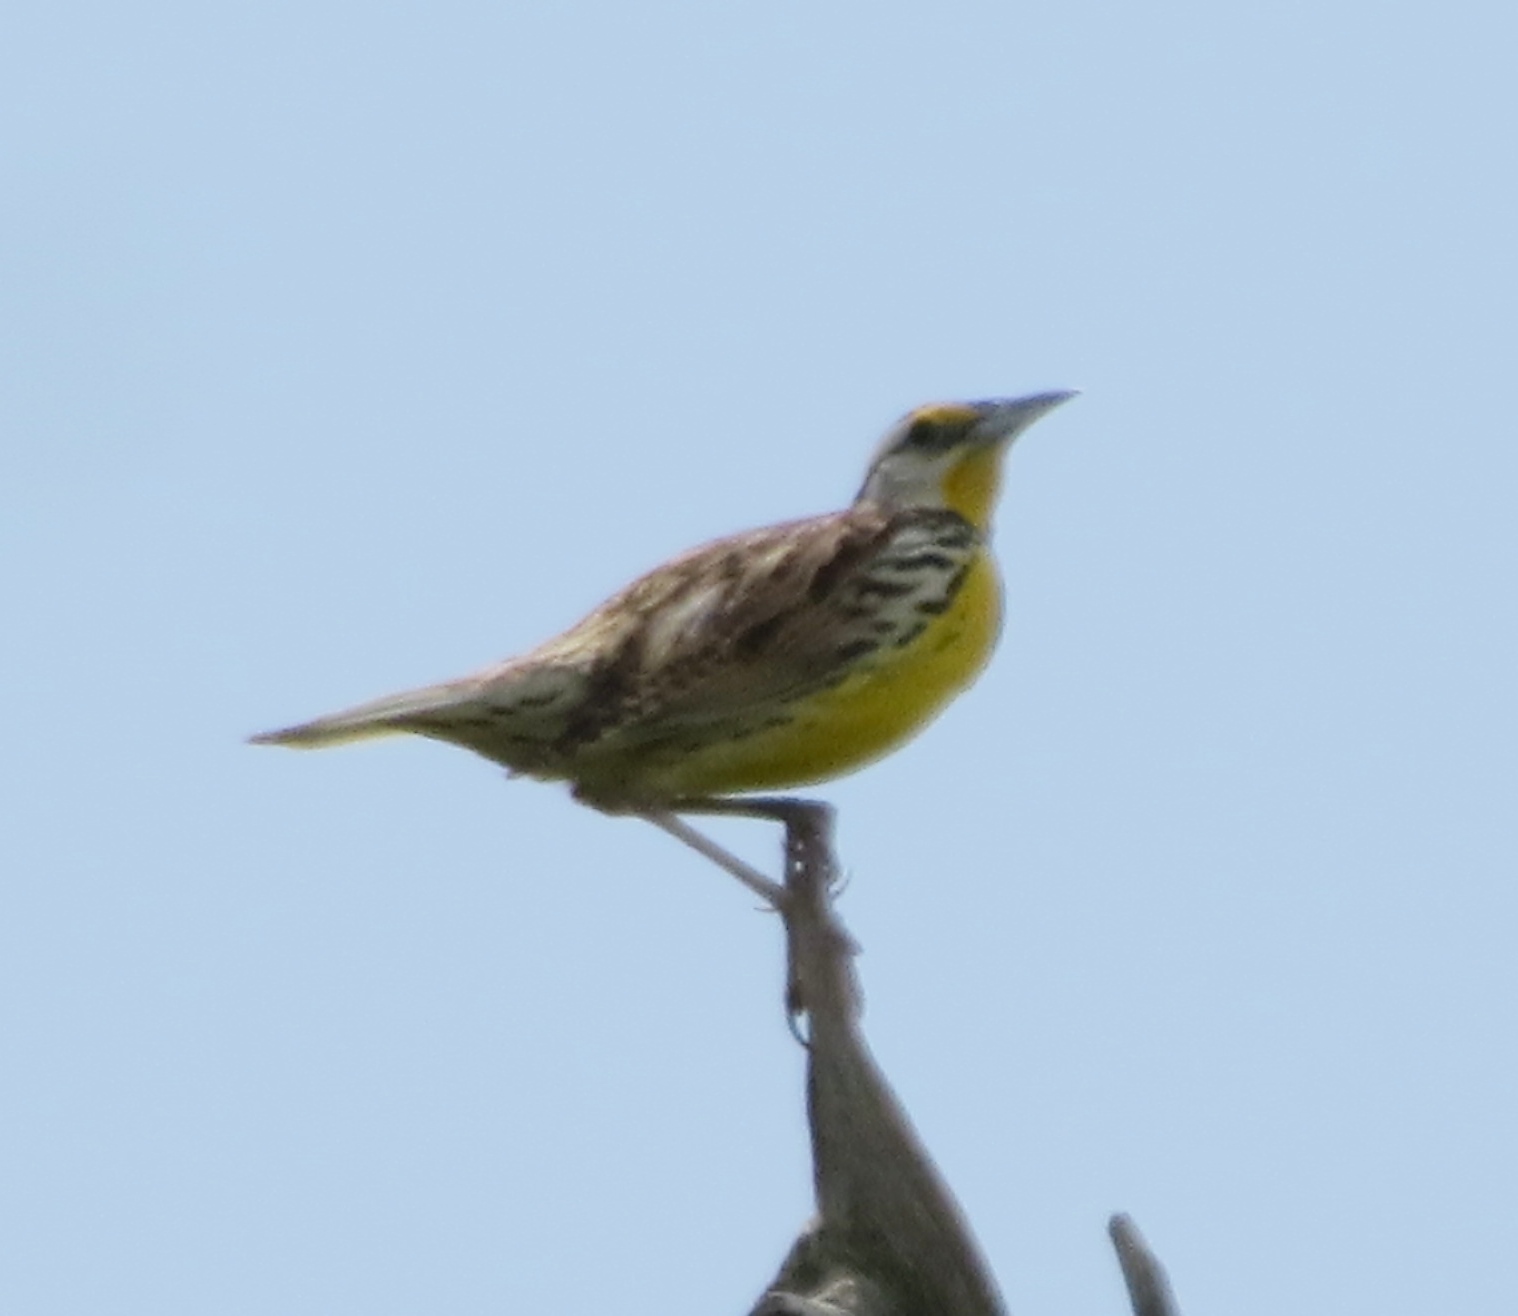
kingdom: Animalia
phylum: Chordata
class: Aves
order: Passeriformes
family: Icteridae
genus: Sturnella
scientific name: Sturnella magna
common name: Eastern meadowlark
